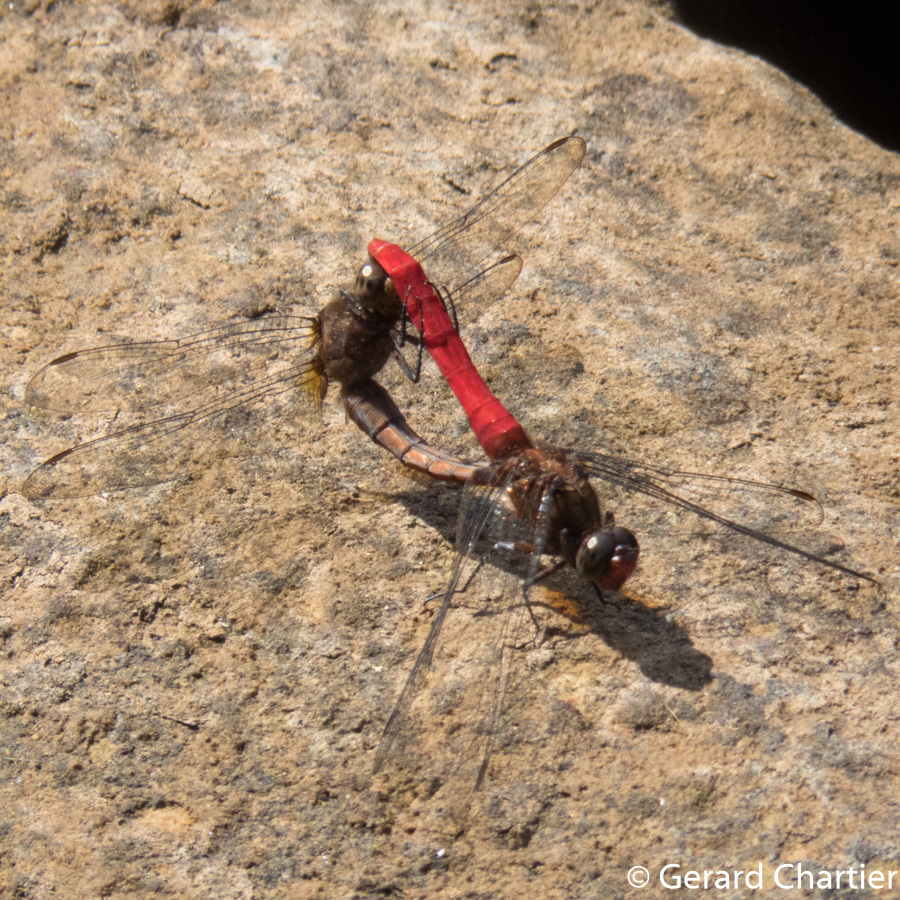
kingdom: Animalia
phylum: Arthropoda
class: Insecta
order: Odonata
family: Libellulidae
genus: Orthetrum
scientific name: Orthetrum chrysis
